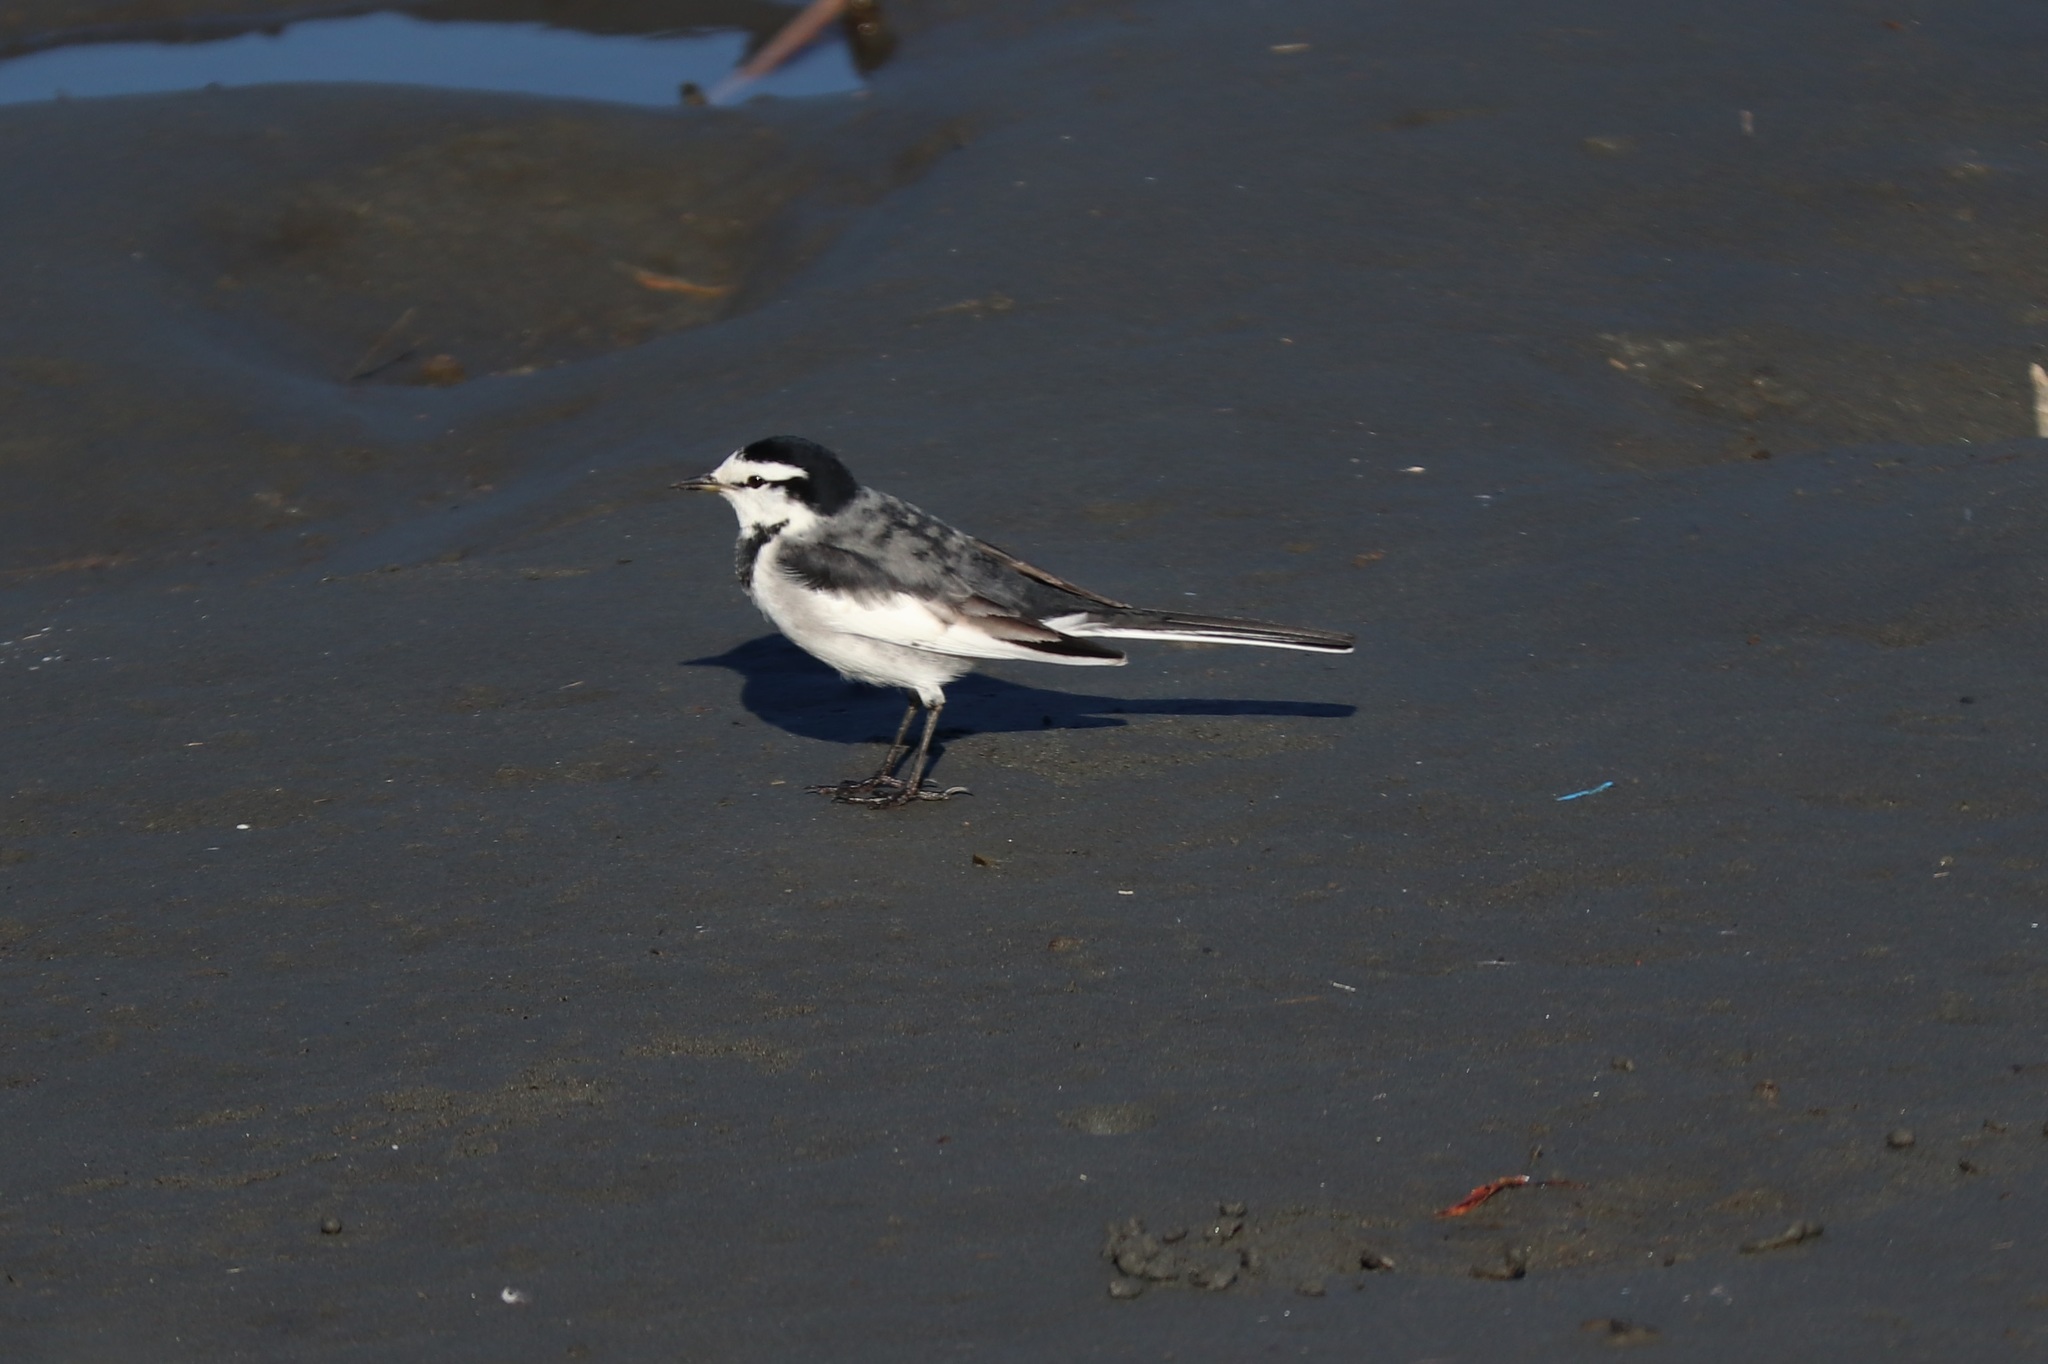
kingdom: Animalia
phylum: Chordata
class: Aves
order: Passeriformes
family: Motacillidae
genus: Motacilla
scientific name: Motacilla alba
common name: White wagtail
